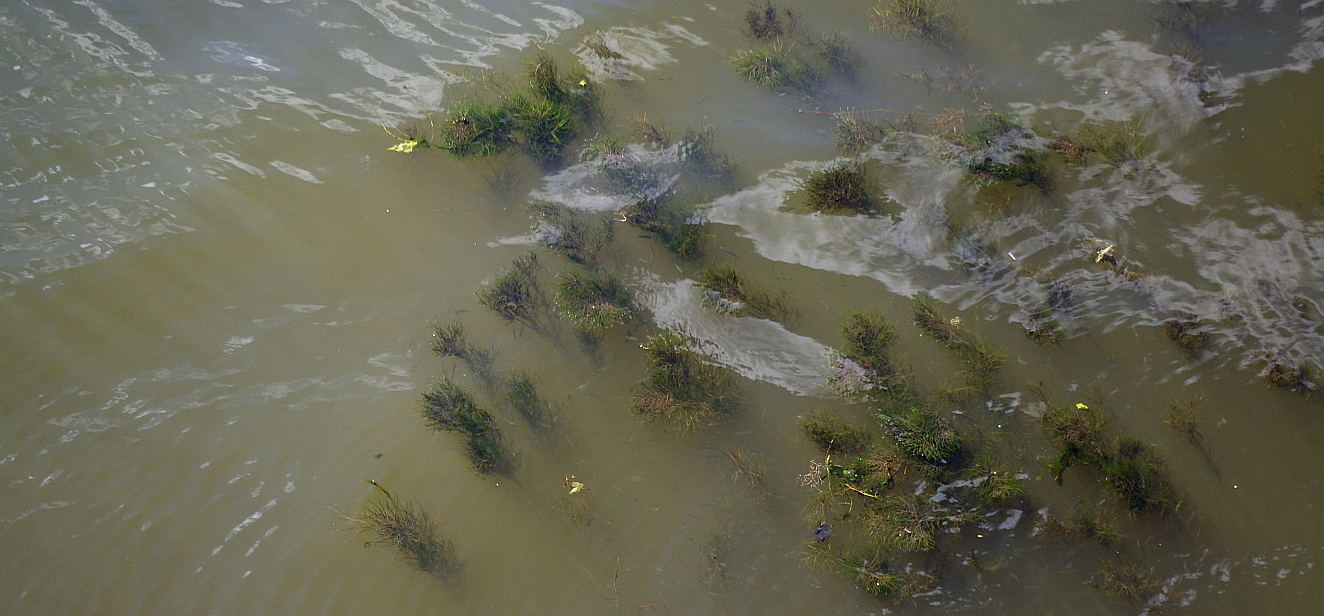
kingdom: Plantae
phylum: Tracheophyta
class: Liliopsida
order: Alismatales
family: Potamogetonaceae
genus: Stuckenia
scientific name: Stuckenia pectinata
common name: Sago pondweed
